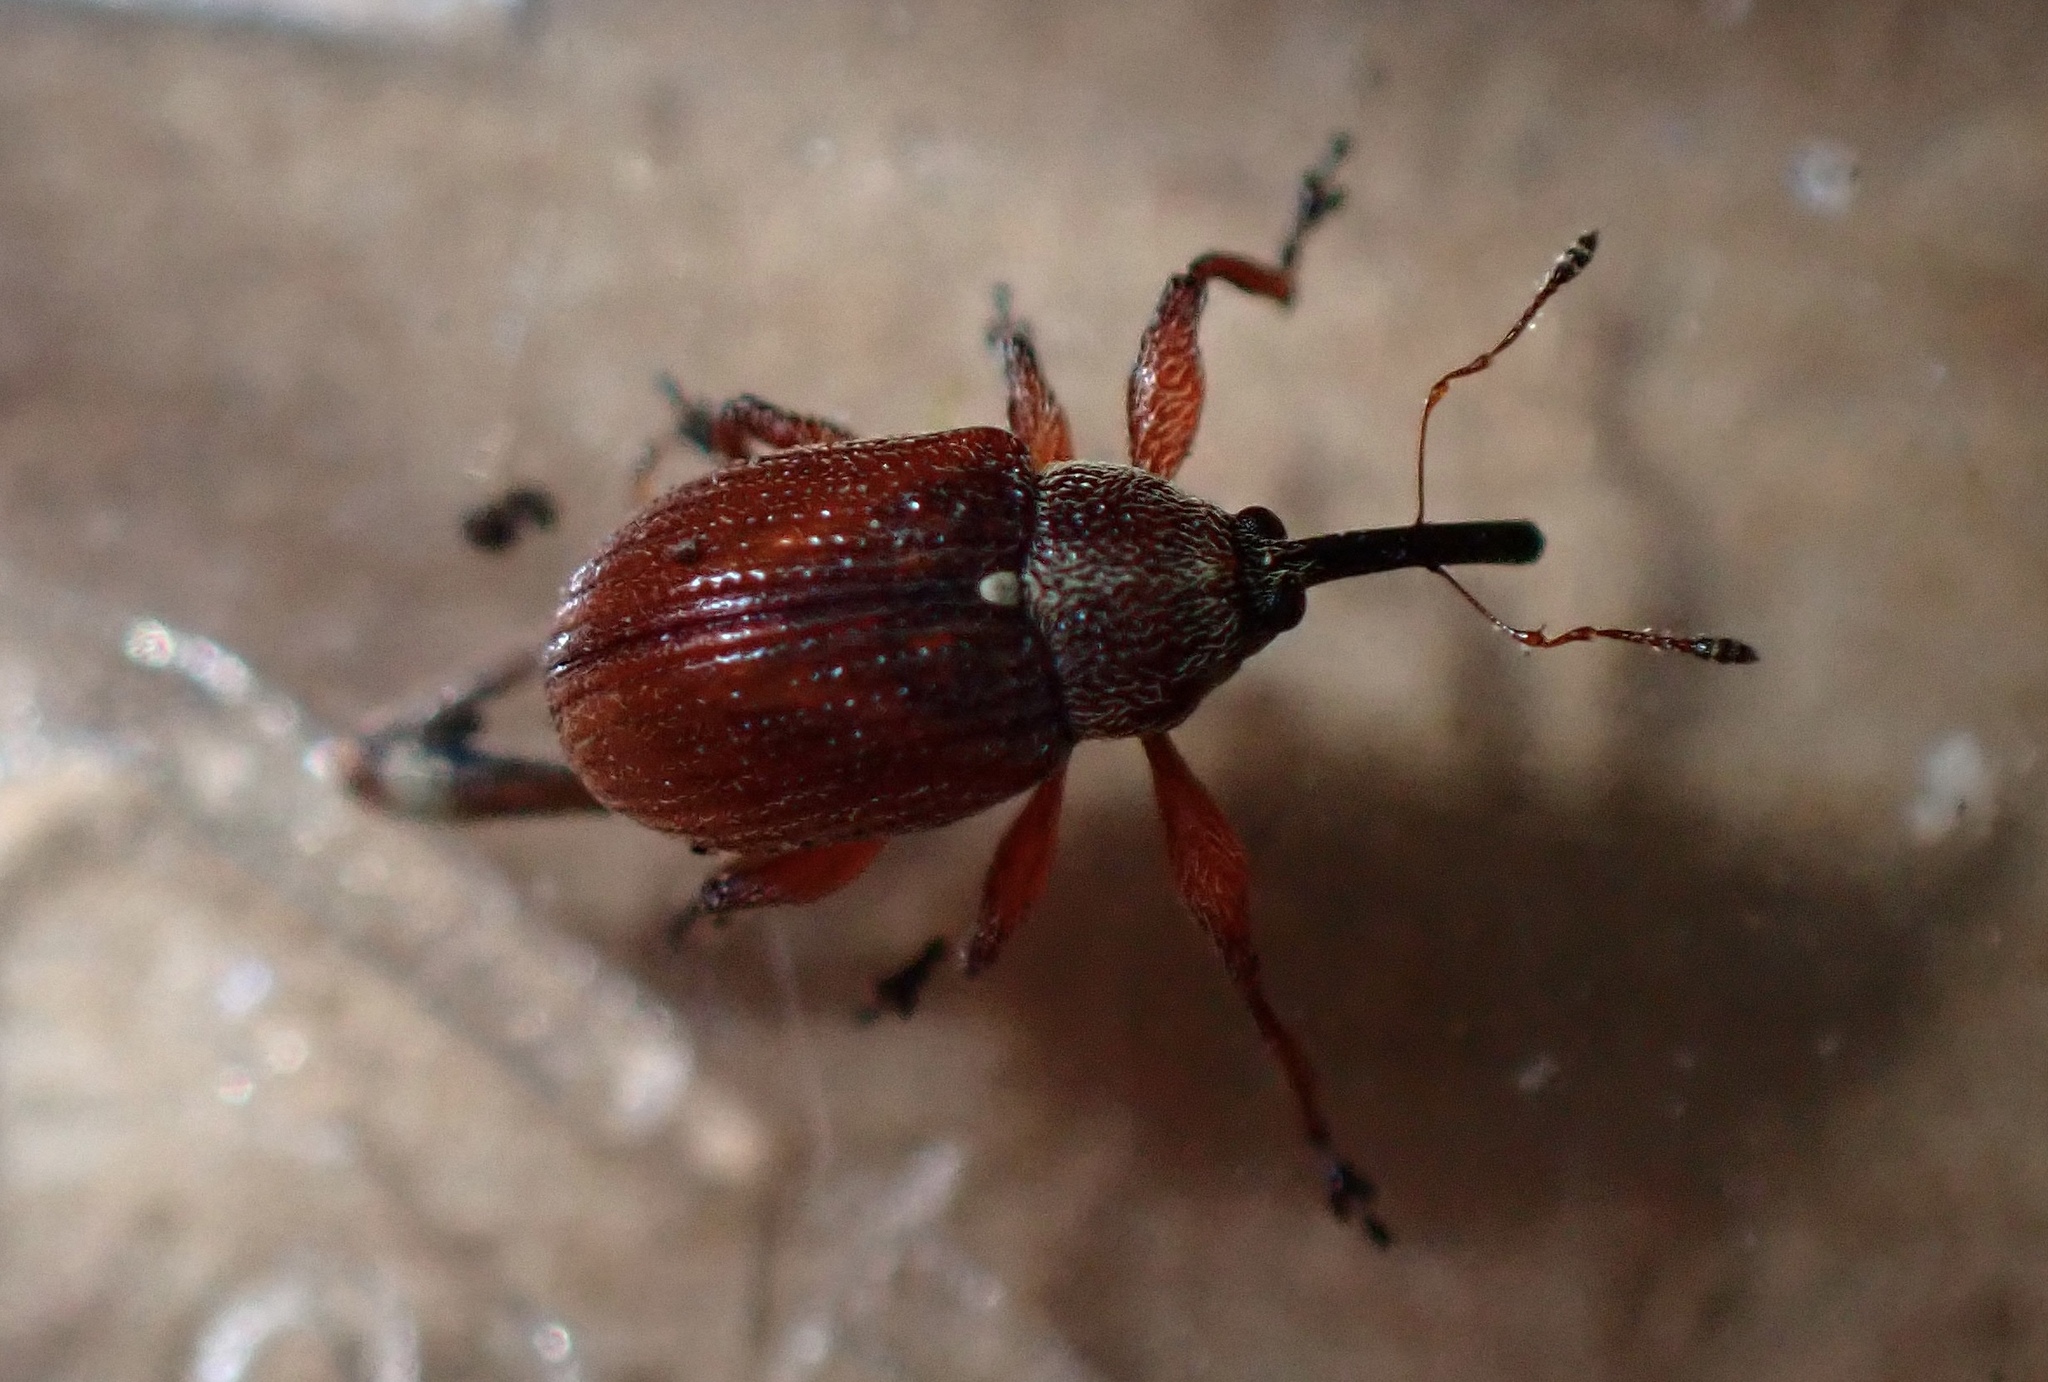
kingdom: Animalia
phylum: Arthropoda
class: Insecta
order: Coleoptera
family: Curculionidae
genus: Anthonomus
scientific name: Anthonomus phyllocola
